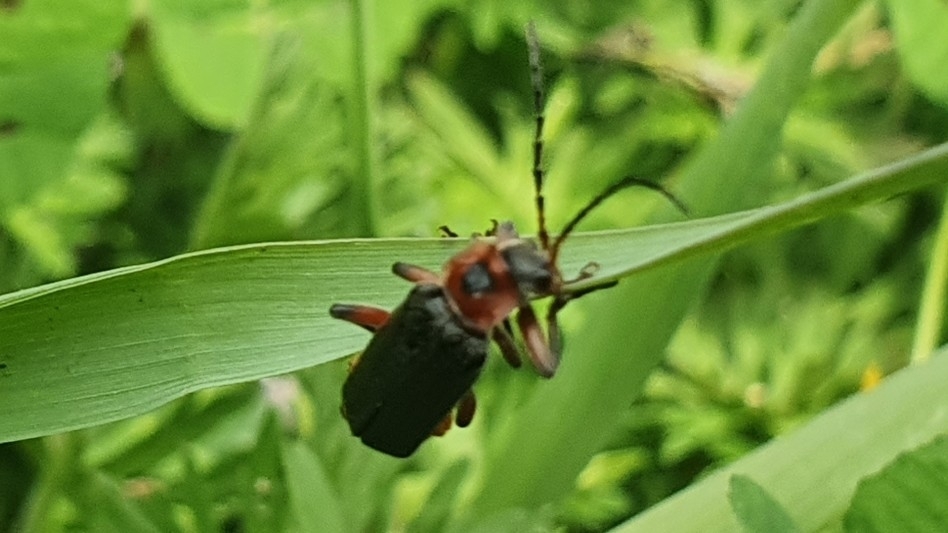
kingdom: Animalia
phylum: Arthropoda
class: Insecta
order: Coleoptera
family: Cantharidae
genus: Cantharis
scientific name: Cantharis rustica
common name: Soldier beetle
